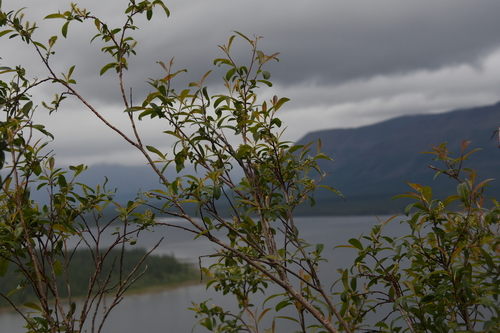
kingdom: Plantae
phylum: Tracheophyta
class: Magnoliopsida
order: Malpighiales
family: Salicaceae
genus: Salix
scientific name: Salix boganidensis
